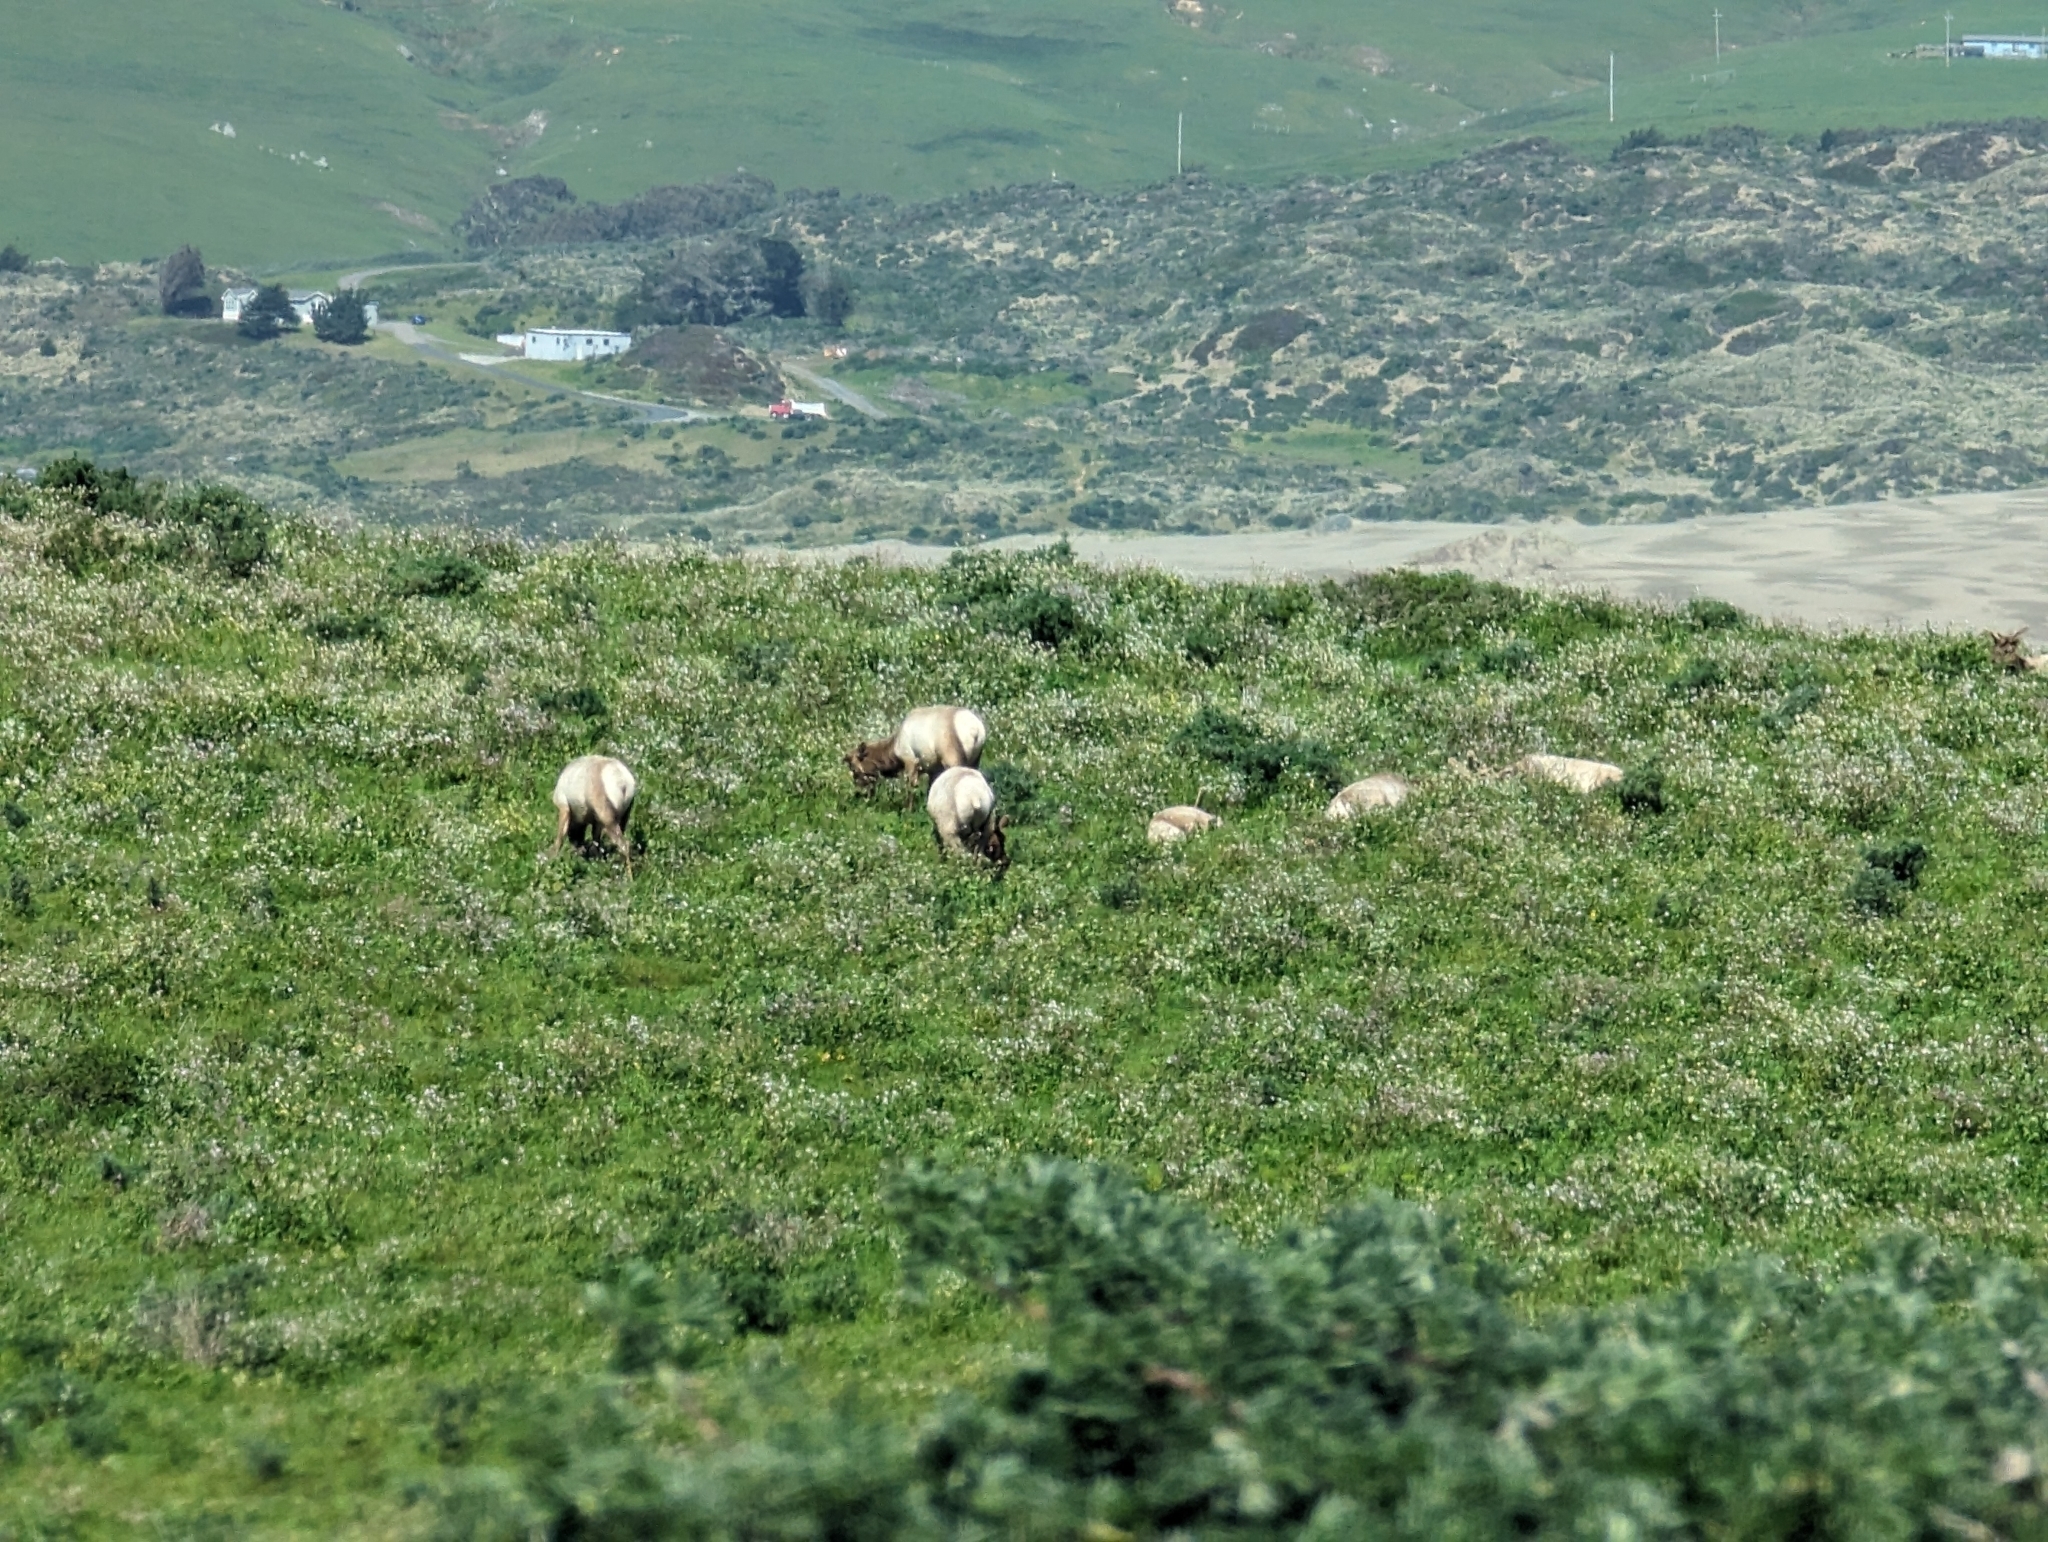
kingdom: Animalia
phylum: Chordata
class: Mammalia
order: Artiodactyla
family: Cervidae
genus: Cervus
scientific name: Cervus elaphus
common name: Red deer
